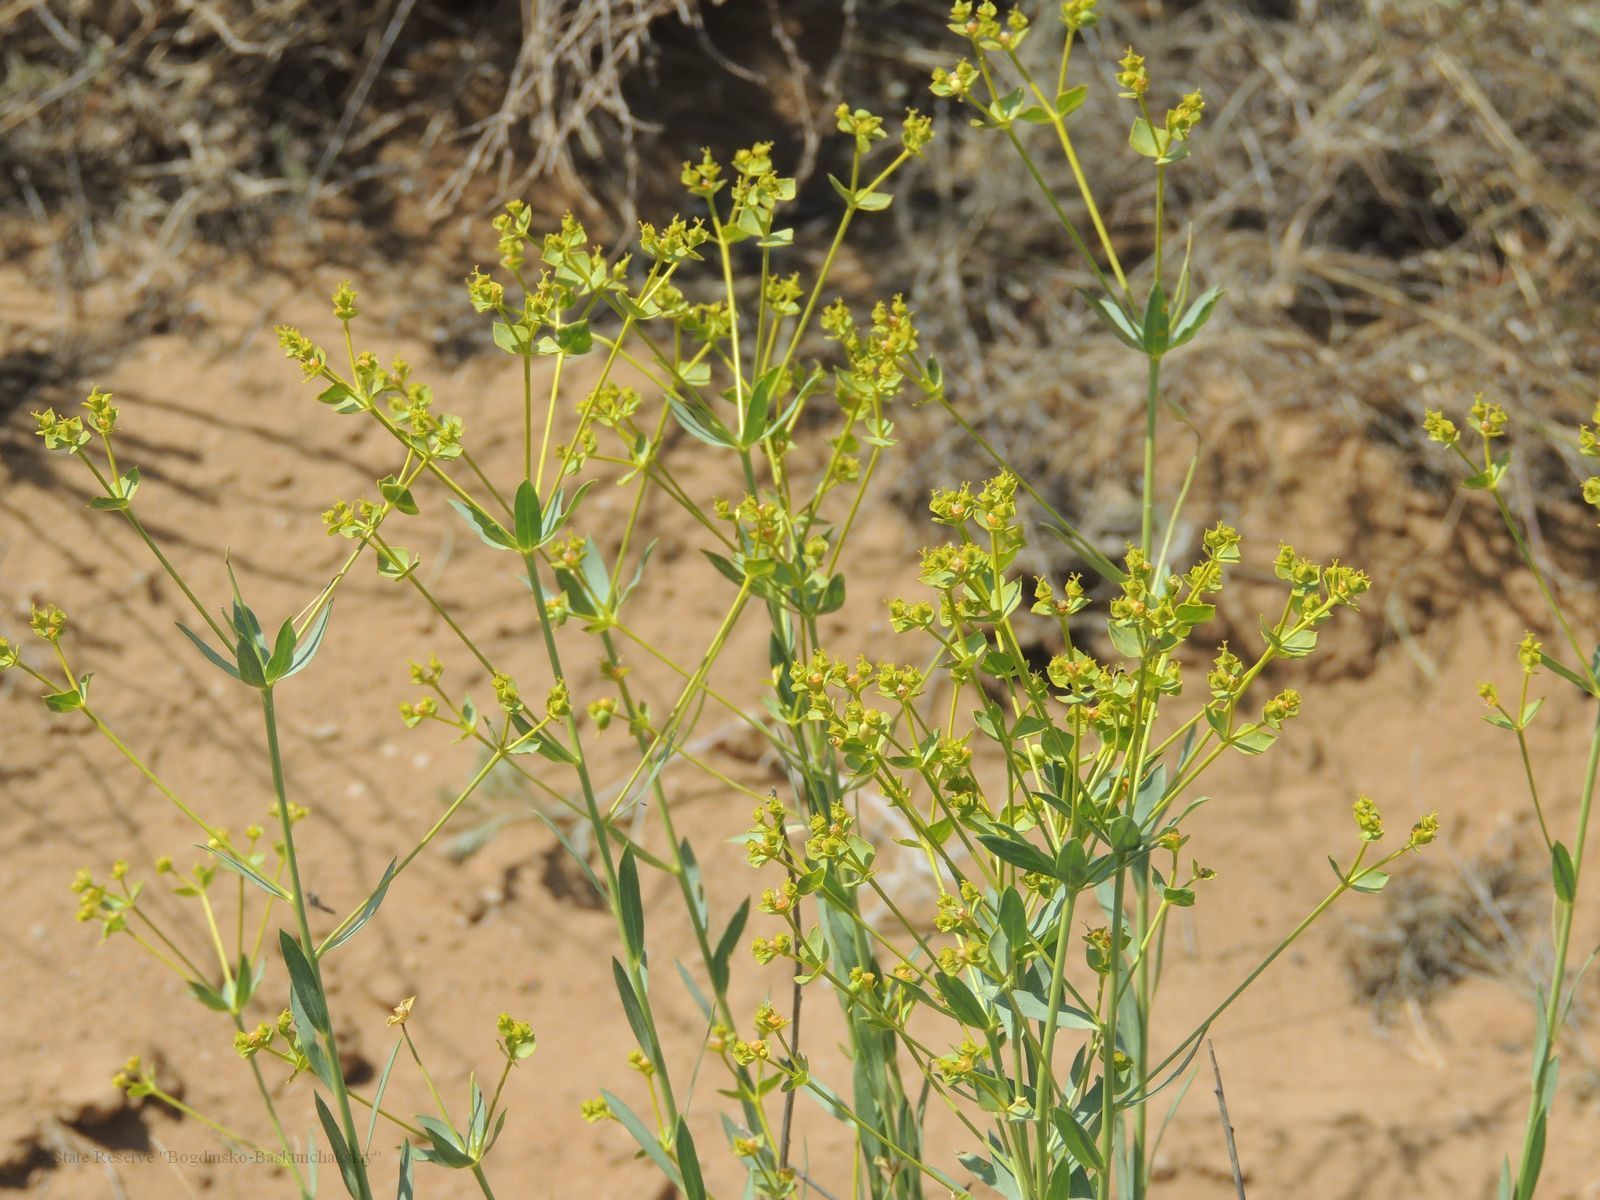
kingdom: Plantae
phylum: Tracheophyta
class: Magnoliopsida
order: Malpighiales
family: Euphorbiaceae
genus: Euphorbia
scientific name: Euphorbia seguieriana
